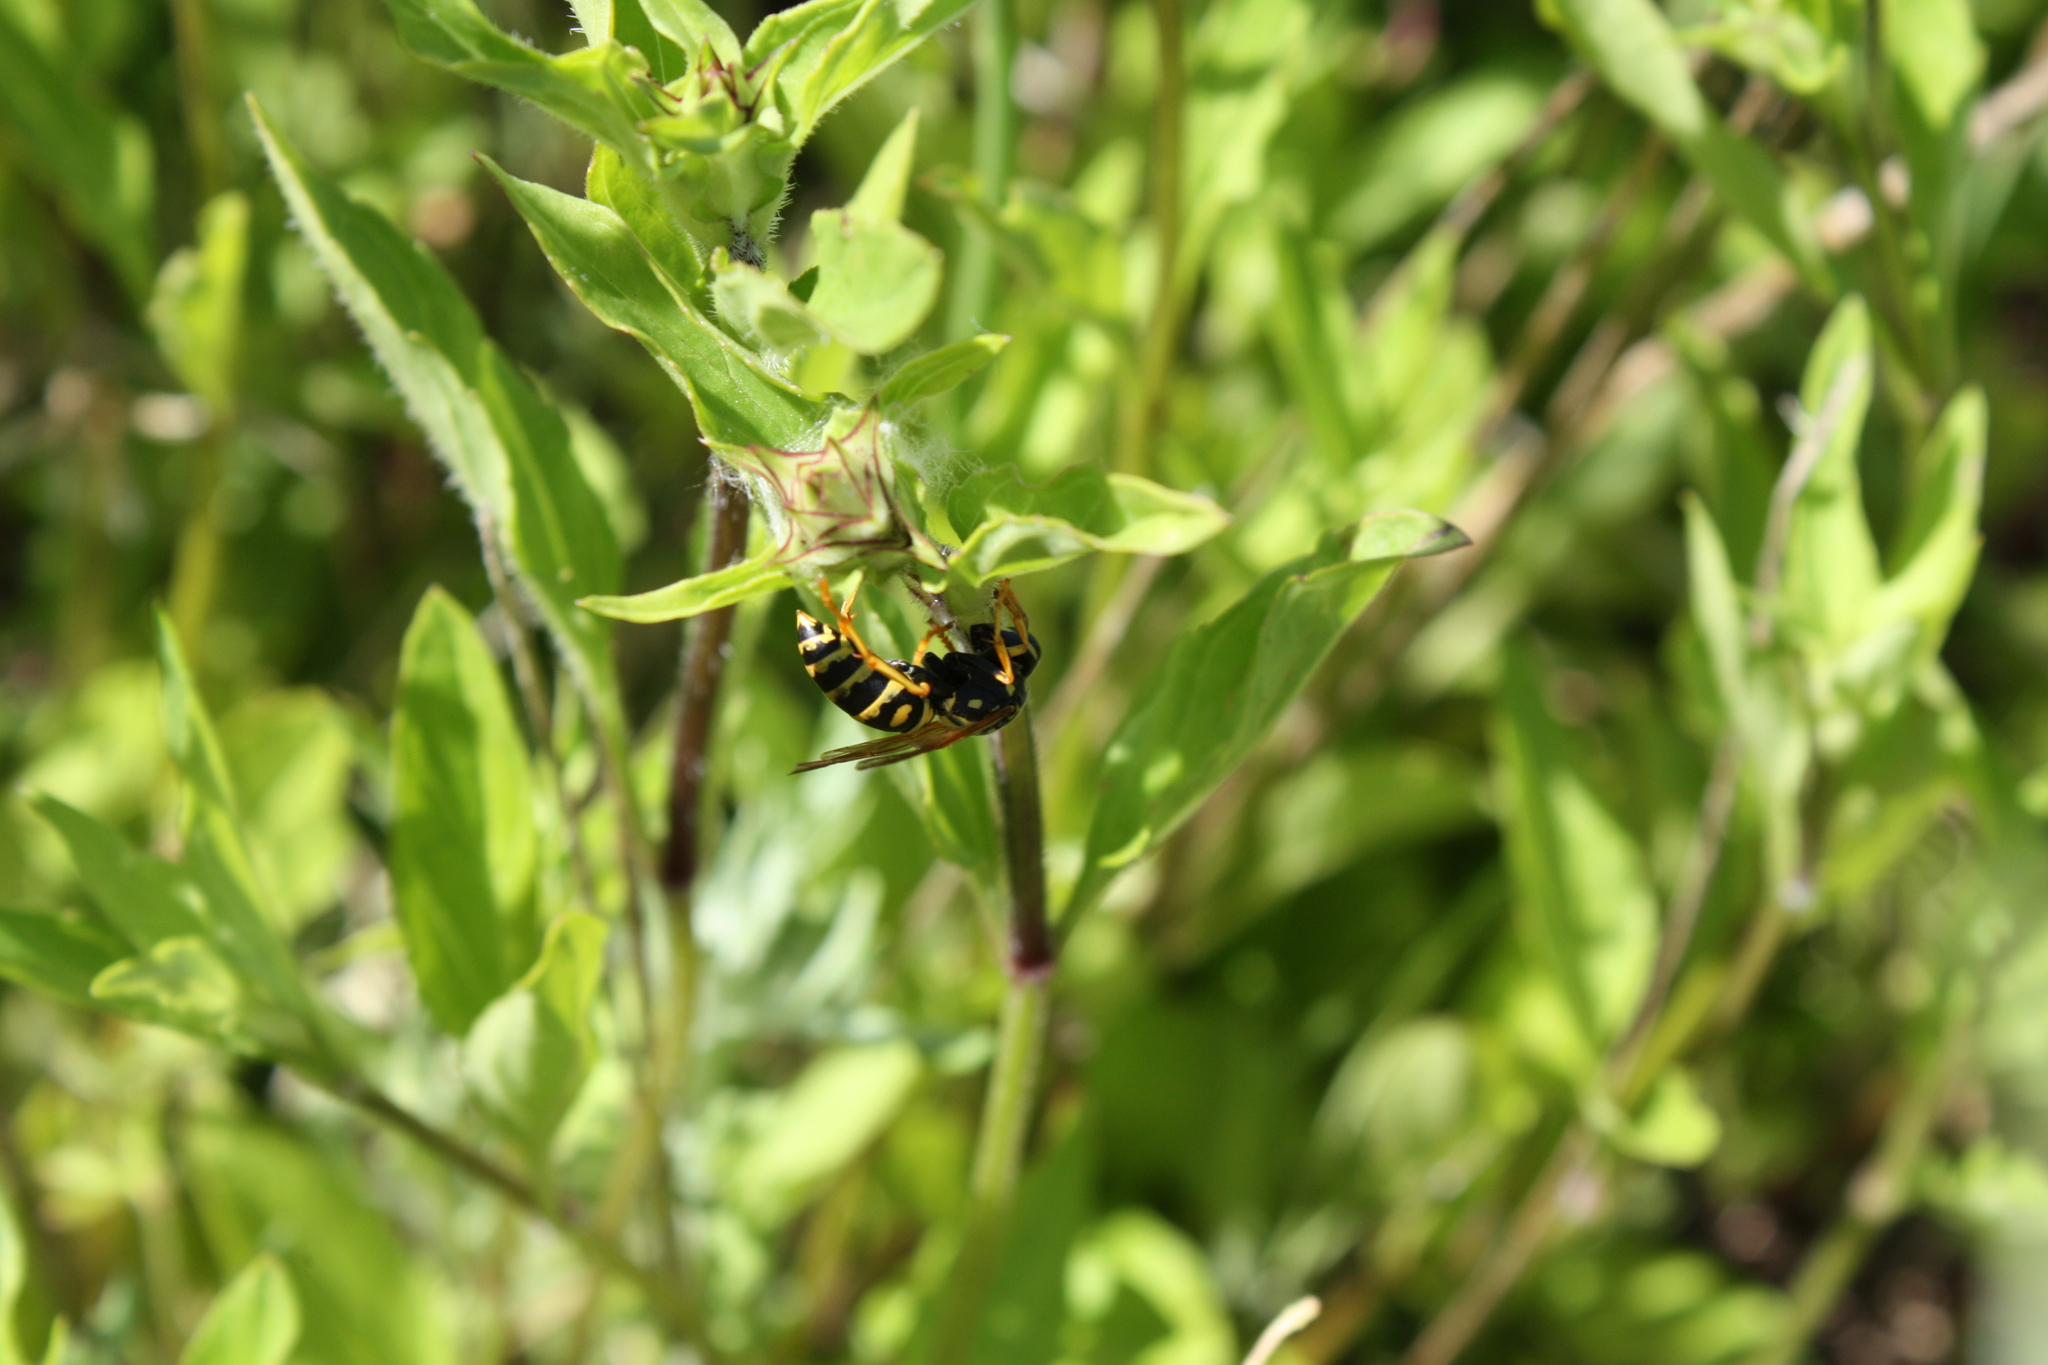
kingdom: Animalia
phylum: Arthropoda
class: Insecta
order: Hymenoptera
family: Eumenidae
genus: Polistes
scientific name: Polistes dominula
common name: Paper wasp
